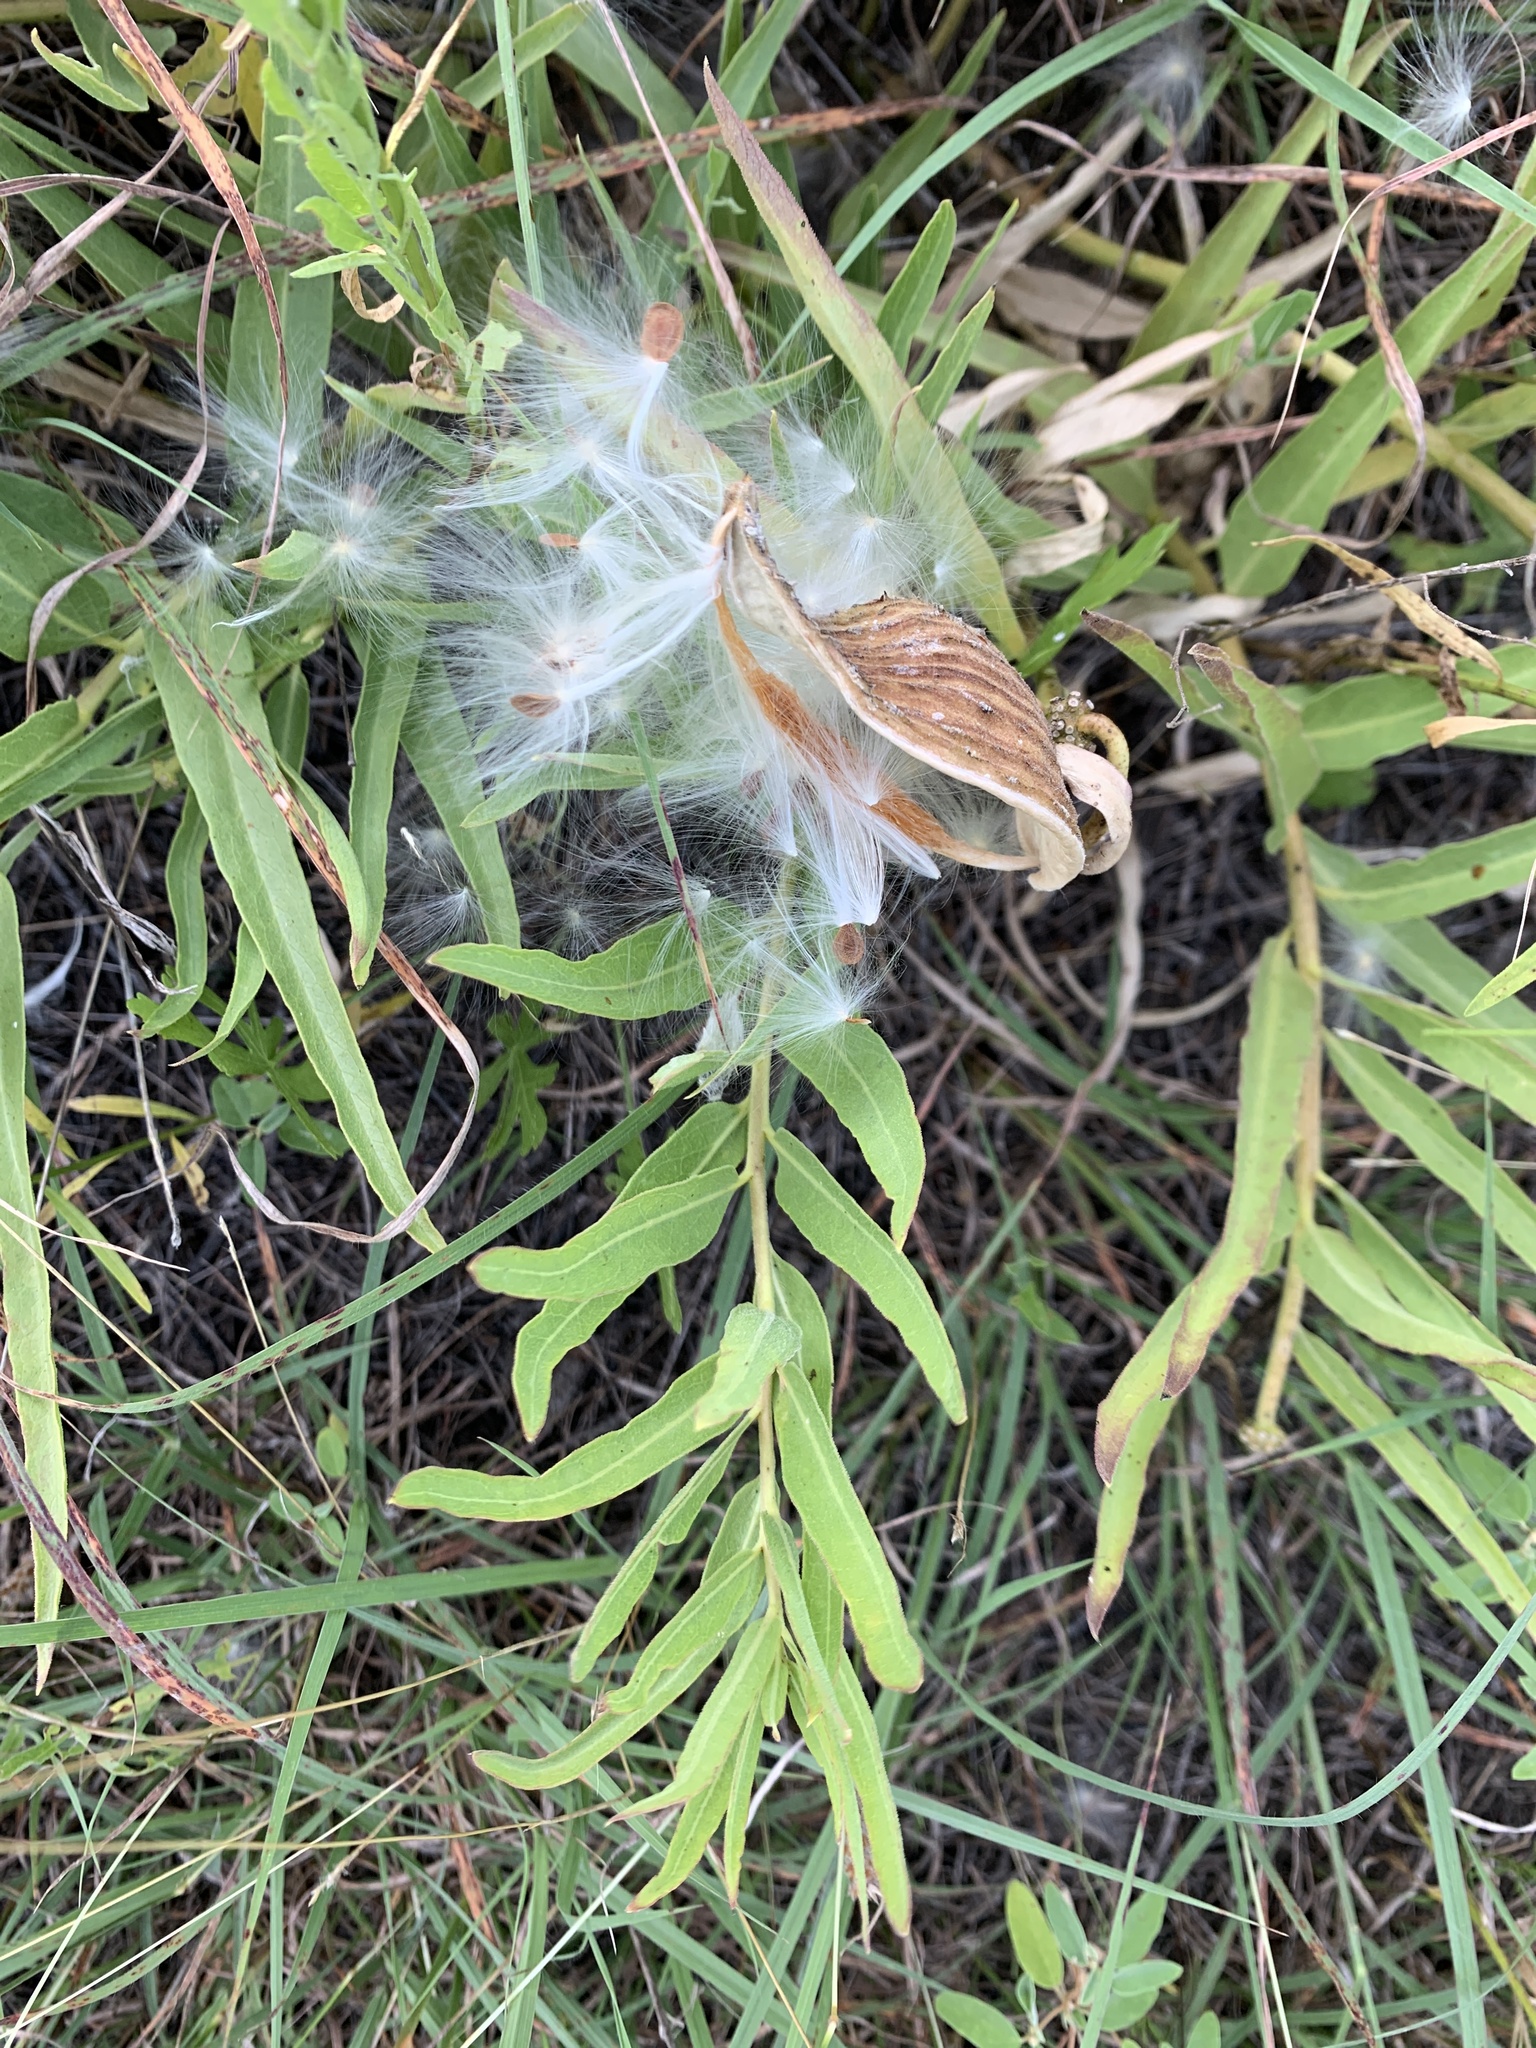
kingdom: Plantae
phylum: Tracheophyta
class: Magnoliopsida
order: Gentianales
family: Apocynaceae
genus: Asclepias
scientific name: Asclepias asperula
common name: Antelope horns
